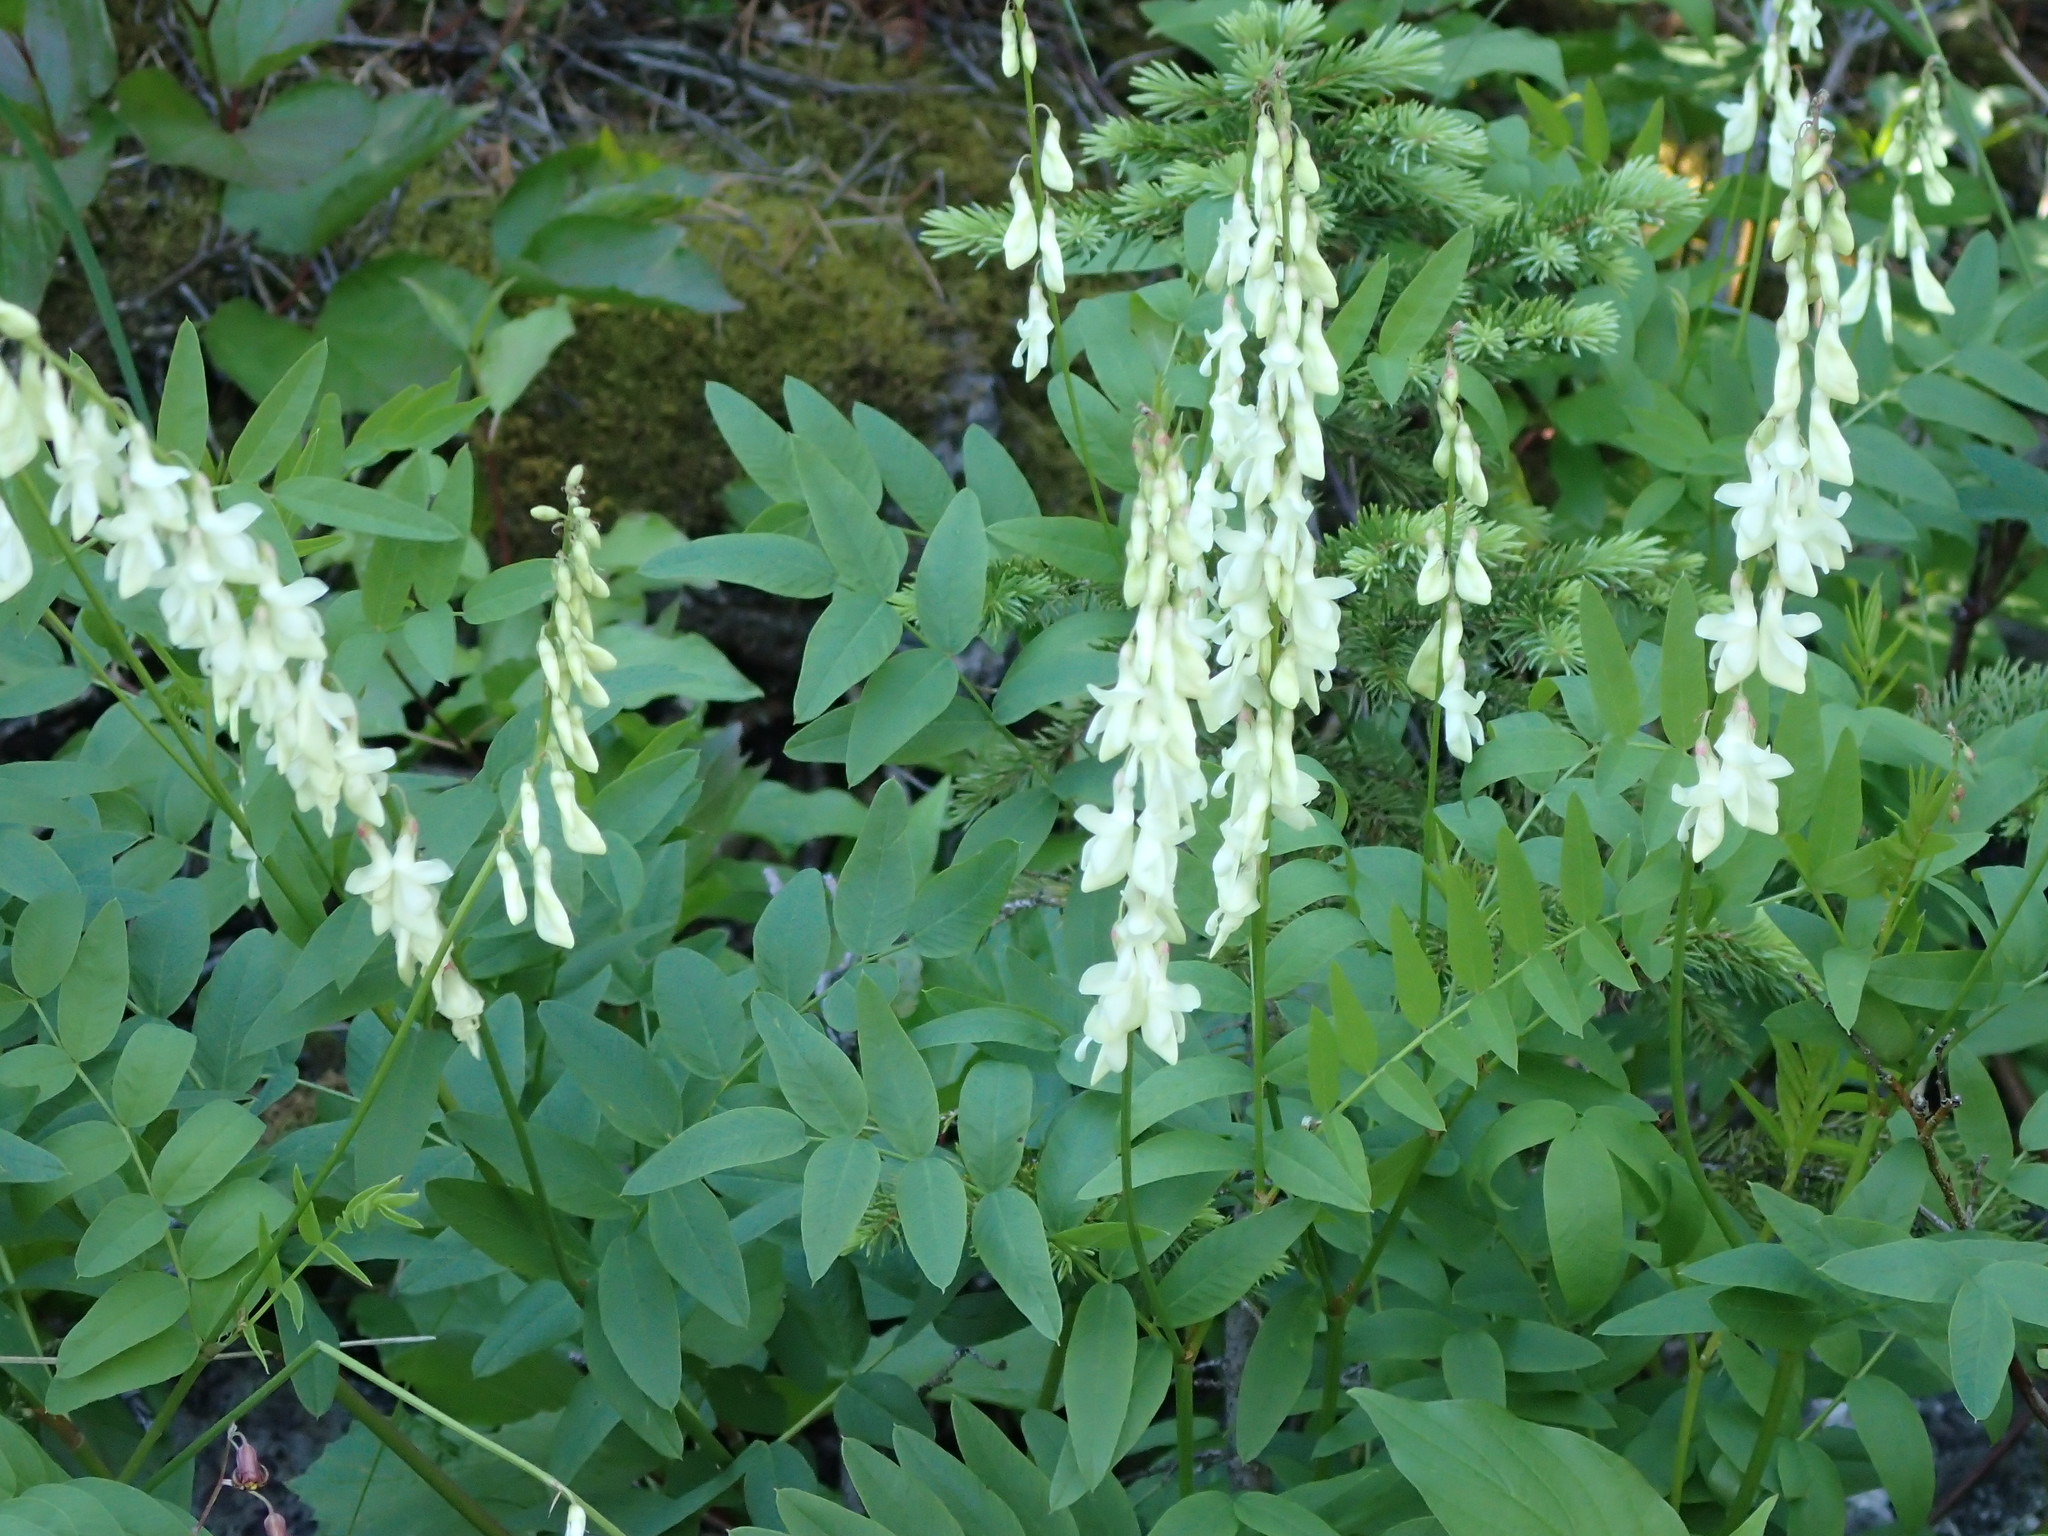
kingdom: Plantae
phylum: Tracheophyta
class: Magnoliopsida
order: Fabales
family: Fabaceae
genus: Hedysarum
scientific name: Hedysarum sulphurescens
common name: Sulphur hedysarum
